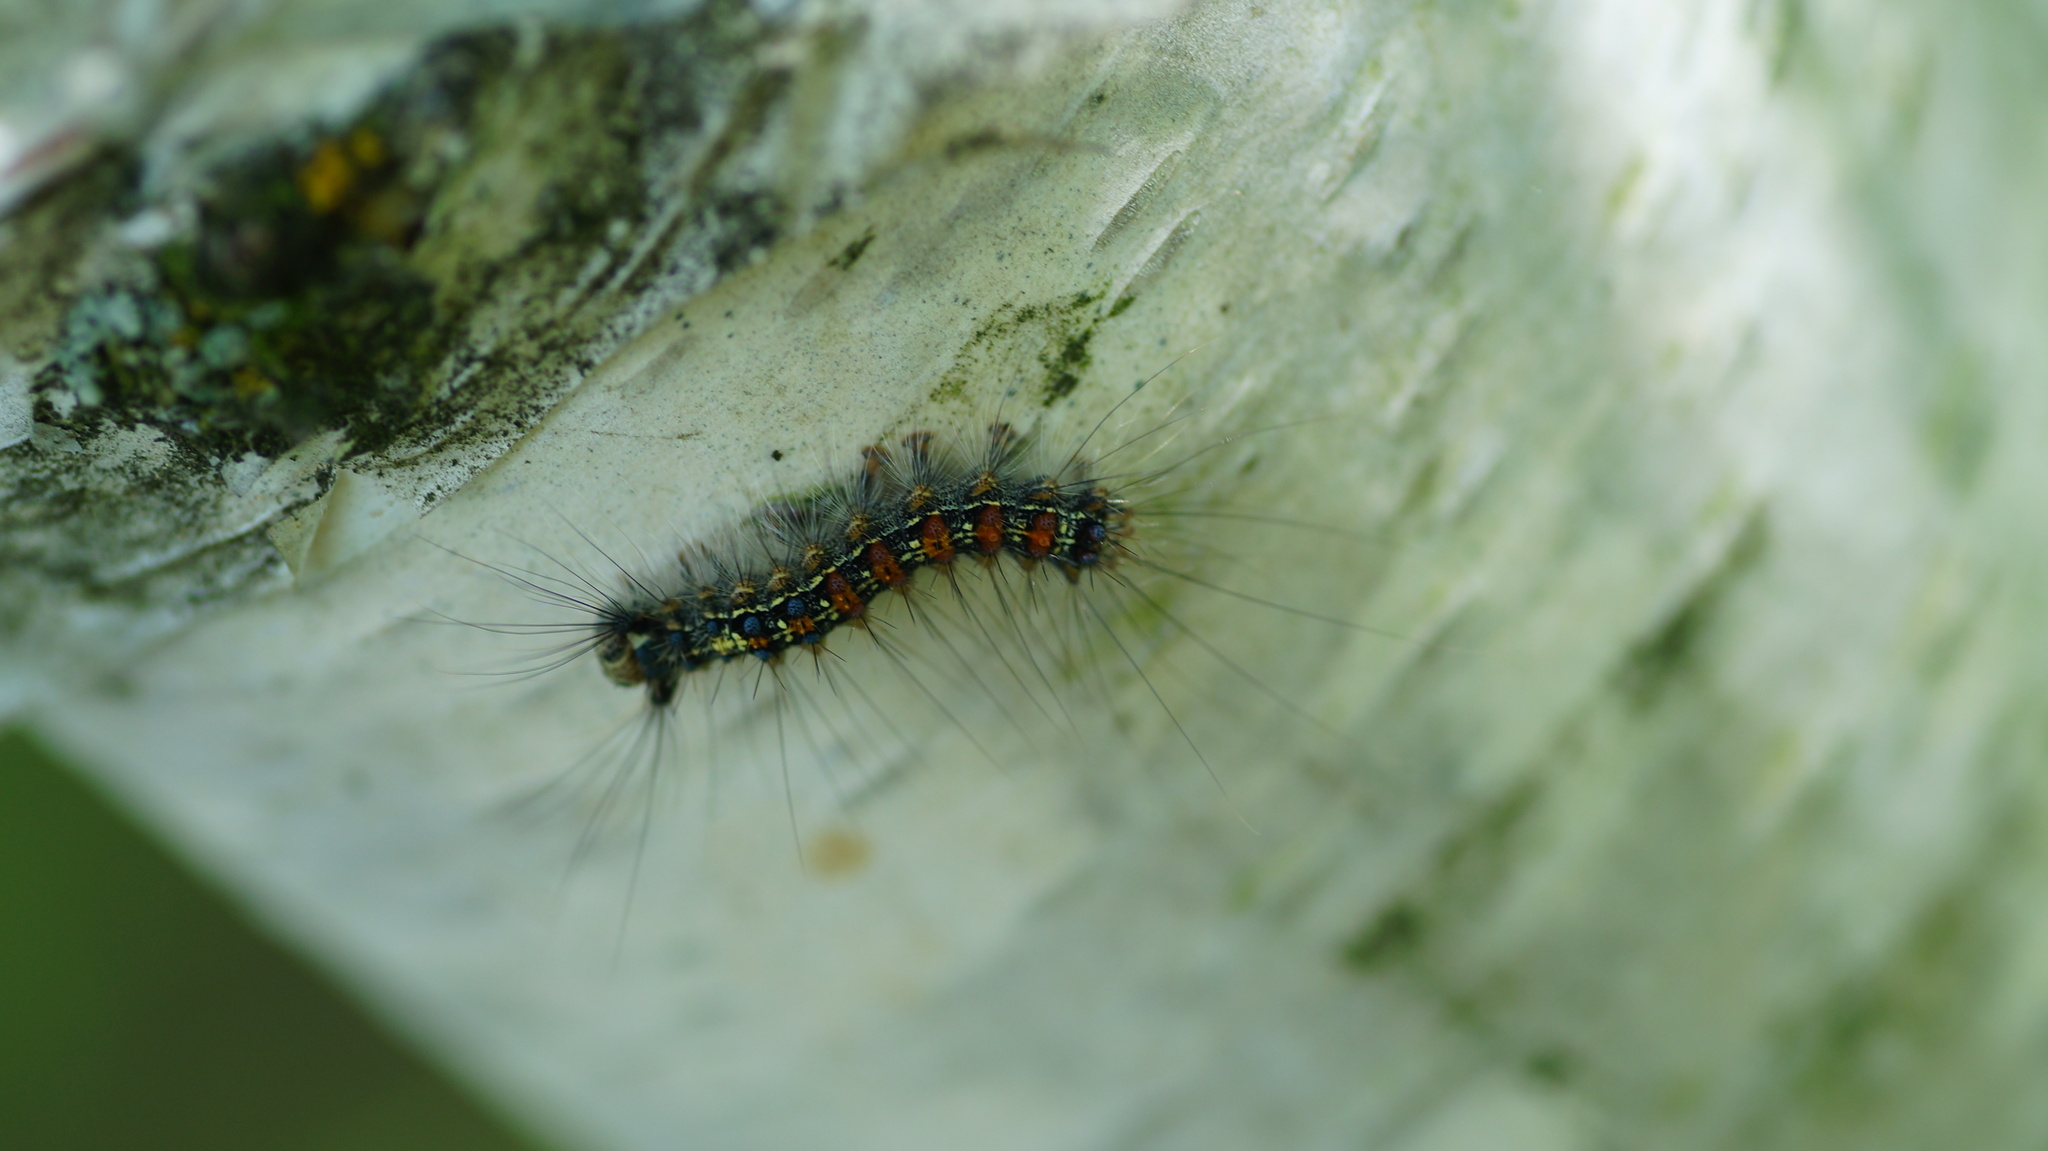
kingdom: Animalia
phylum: Arthropoda
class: Insecta
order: Lepidoptera
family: Erebidae
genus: Lymantria
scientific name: Lymantria dispar
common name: Gypsy moth
